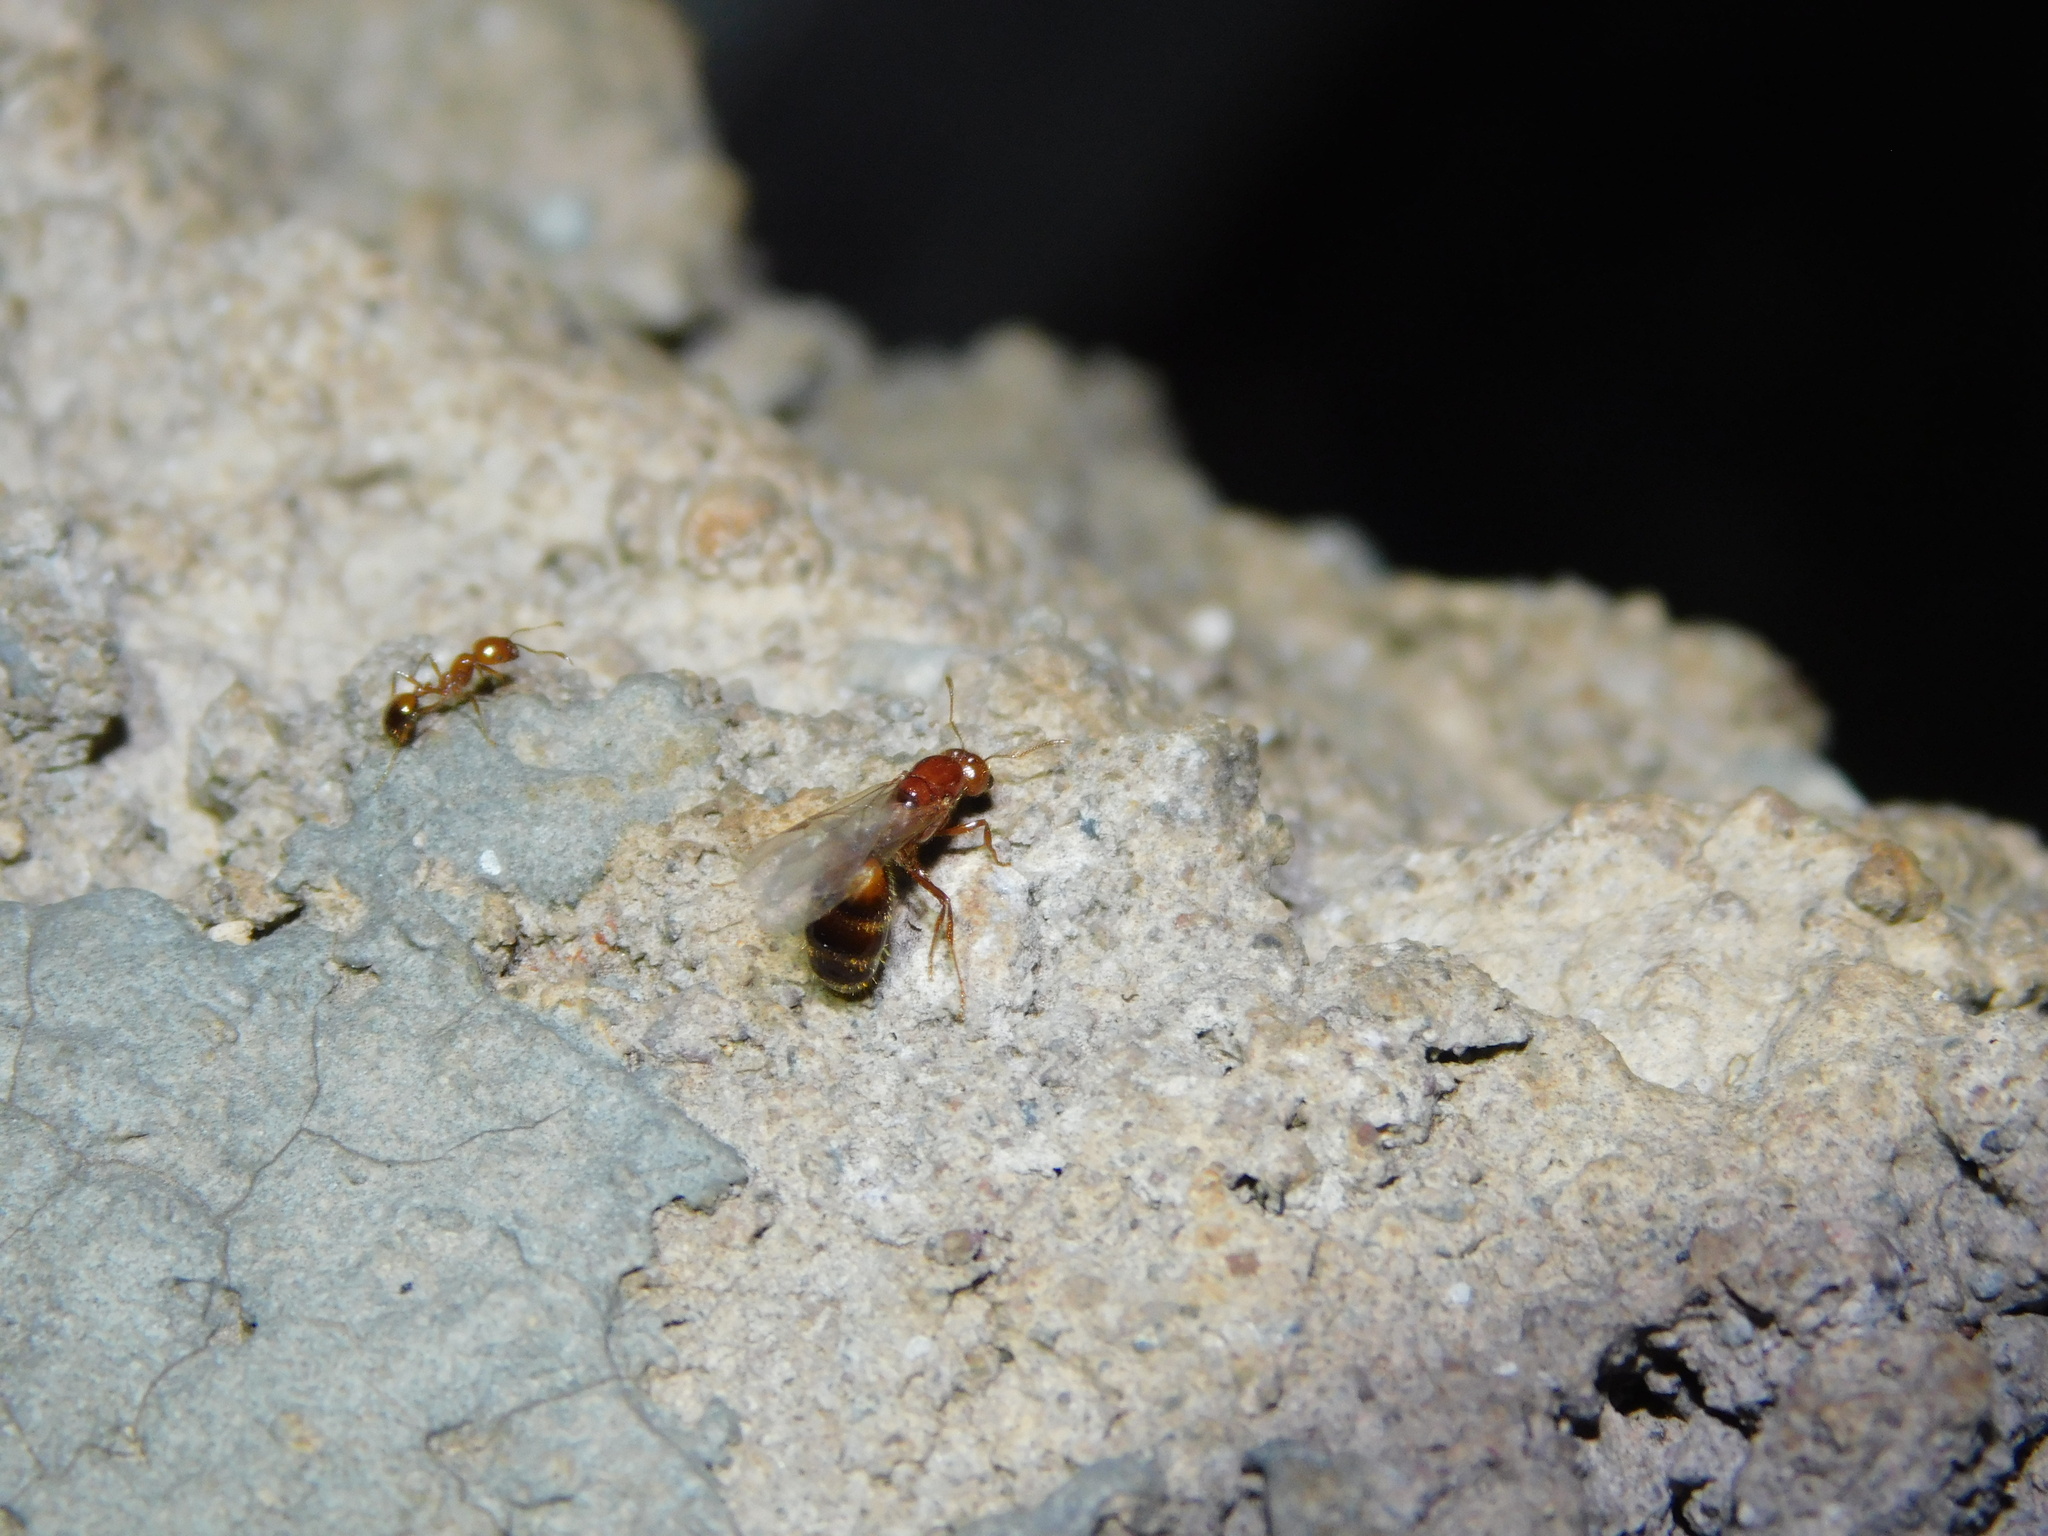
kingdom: Animalia
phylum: Arthropoda
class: Insecta
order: Hymenoptera
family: Formicidae
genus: Solenopsis
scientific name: Solenopsis geminata
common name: Tropical fire ant
